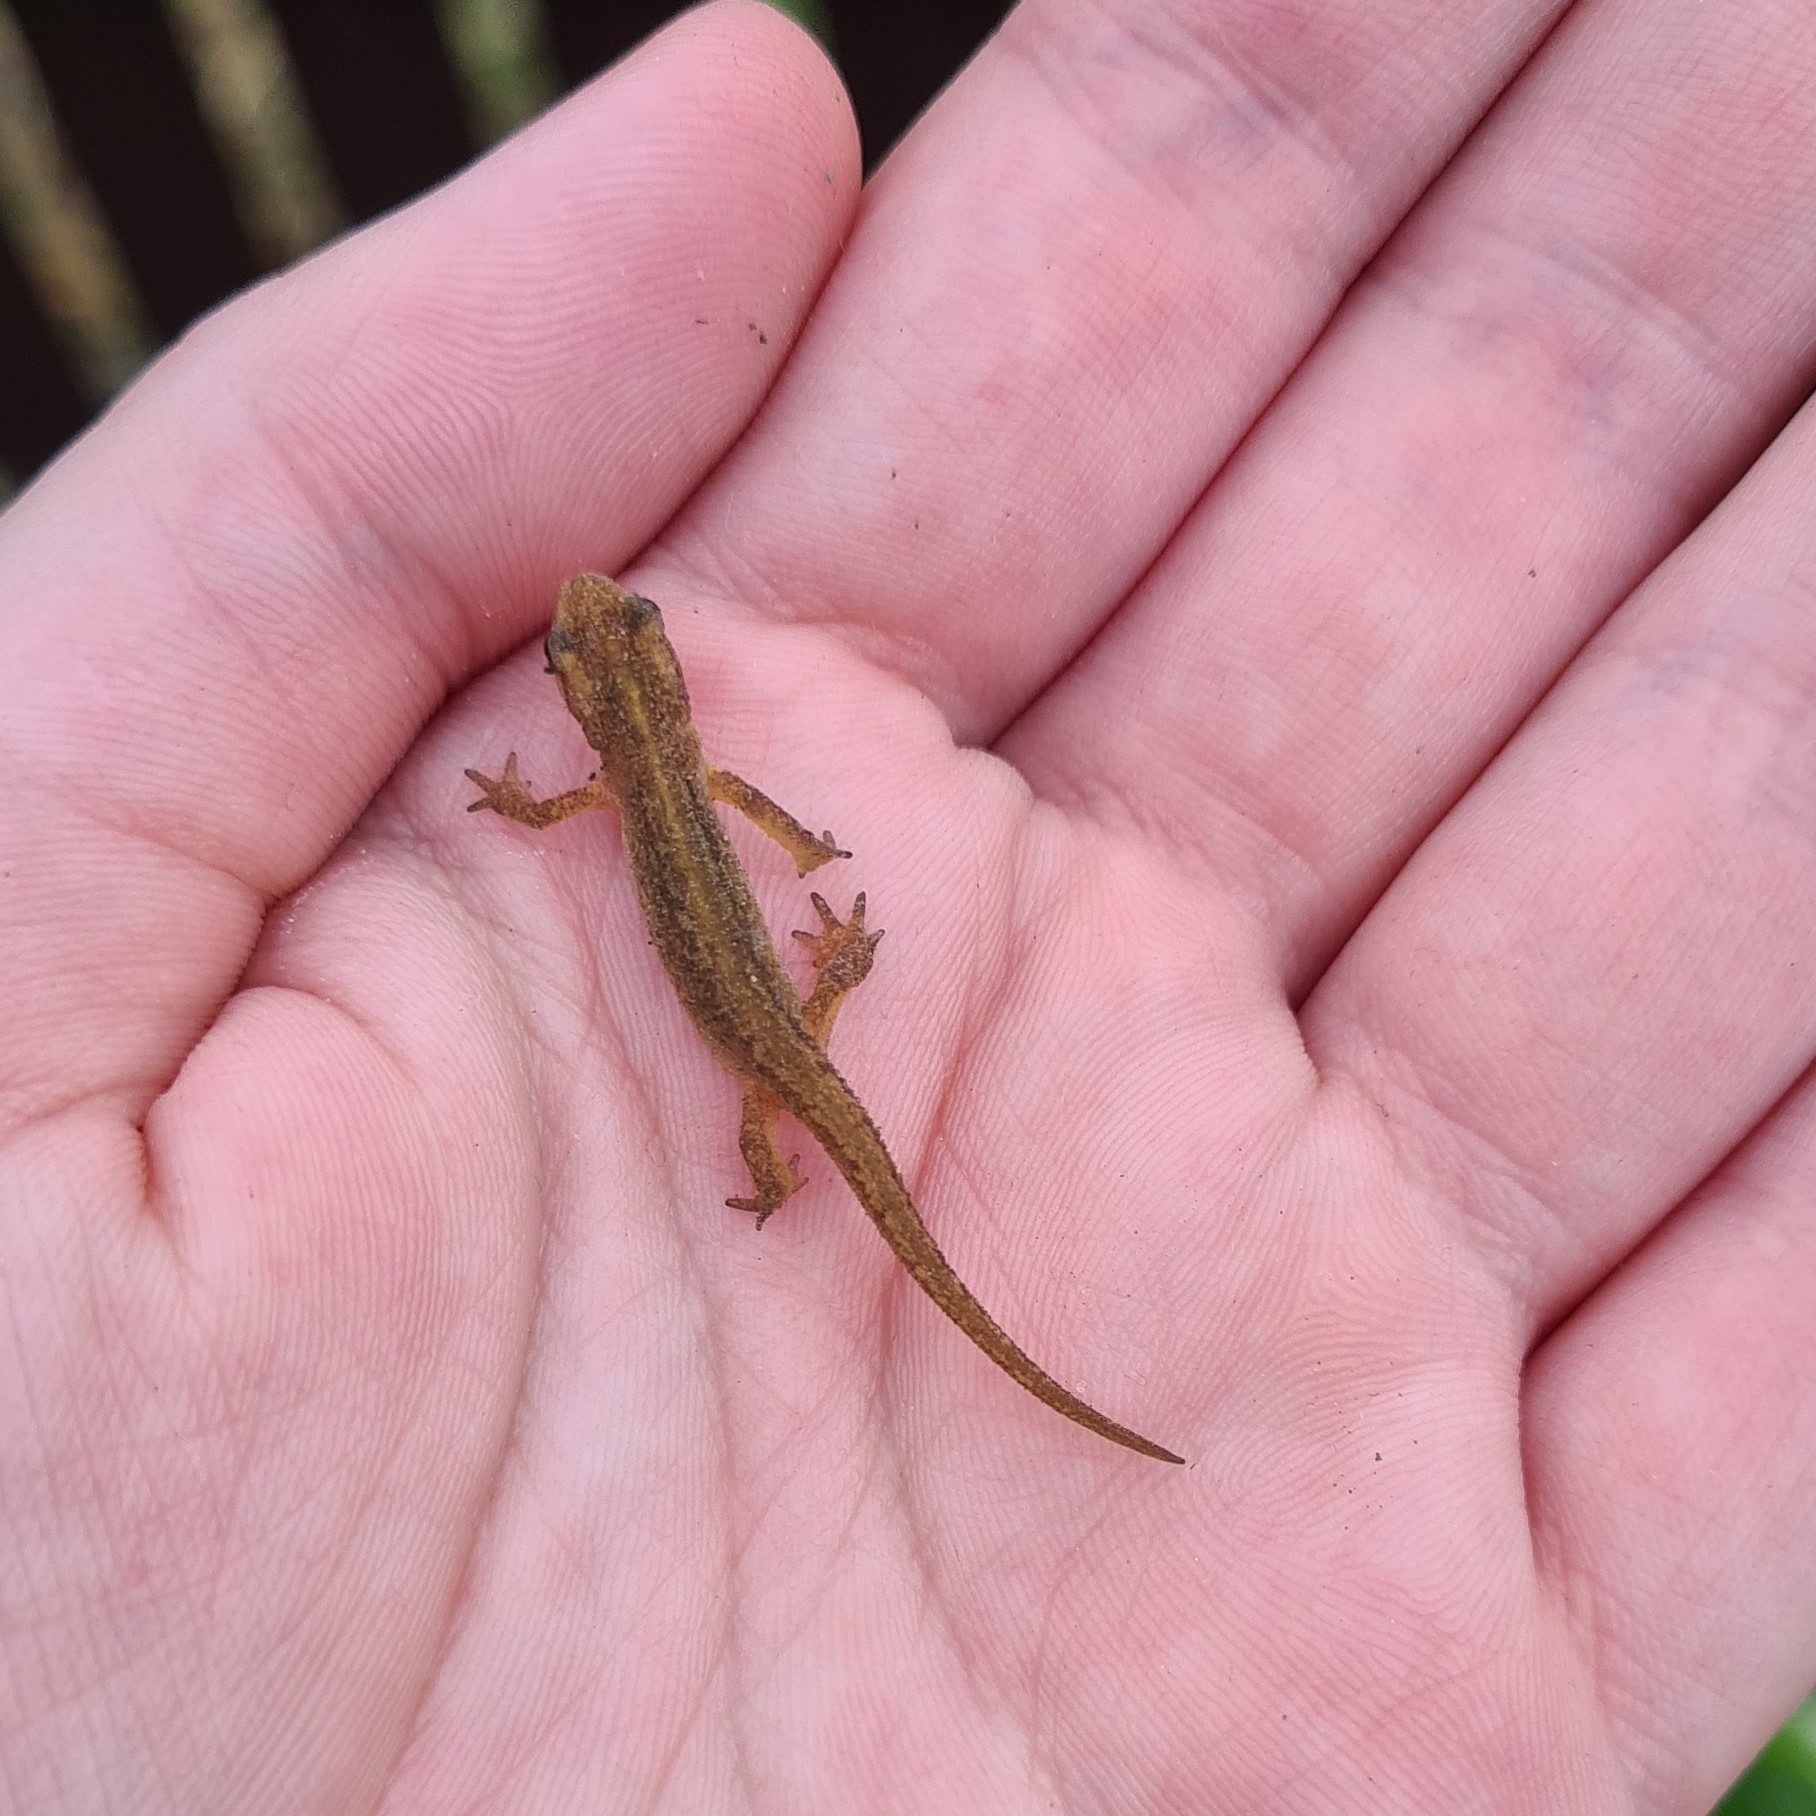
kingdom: Animalia
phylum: Chordata
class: Amphibia
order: Caudata
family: Salamandridae
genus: Lissotriton
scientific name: Lissotriton vulgaris
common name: Smooth newt
